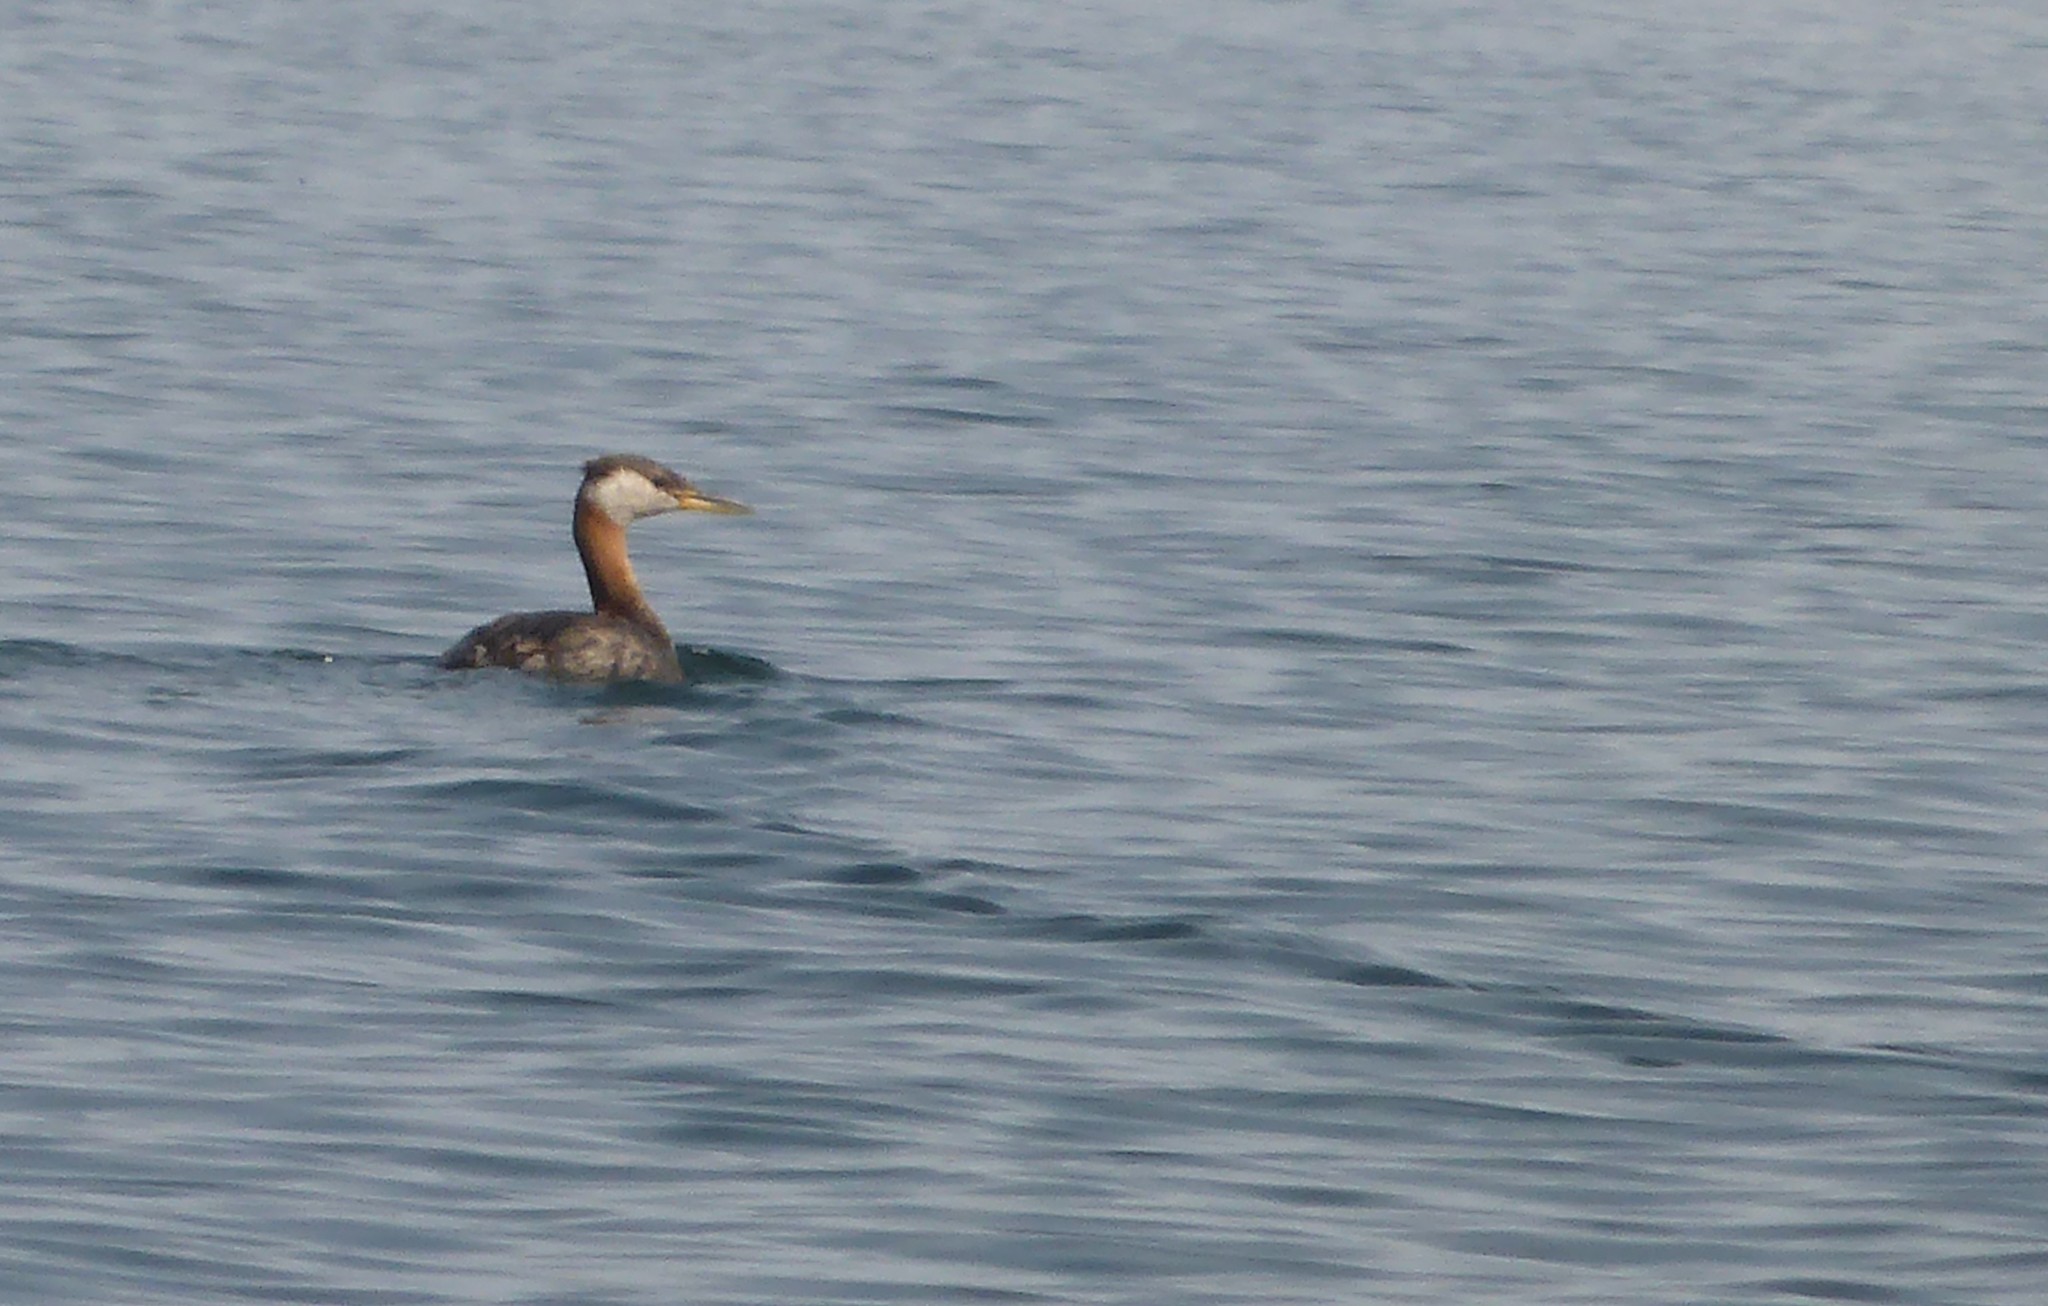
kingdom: Animalia
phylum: Chordata
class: Aves
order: Podicipediformes
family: Podicipedidae
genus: Podiceps
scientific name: Podiceps grisegena
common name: Red-necked grebe
